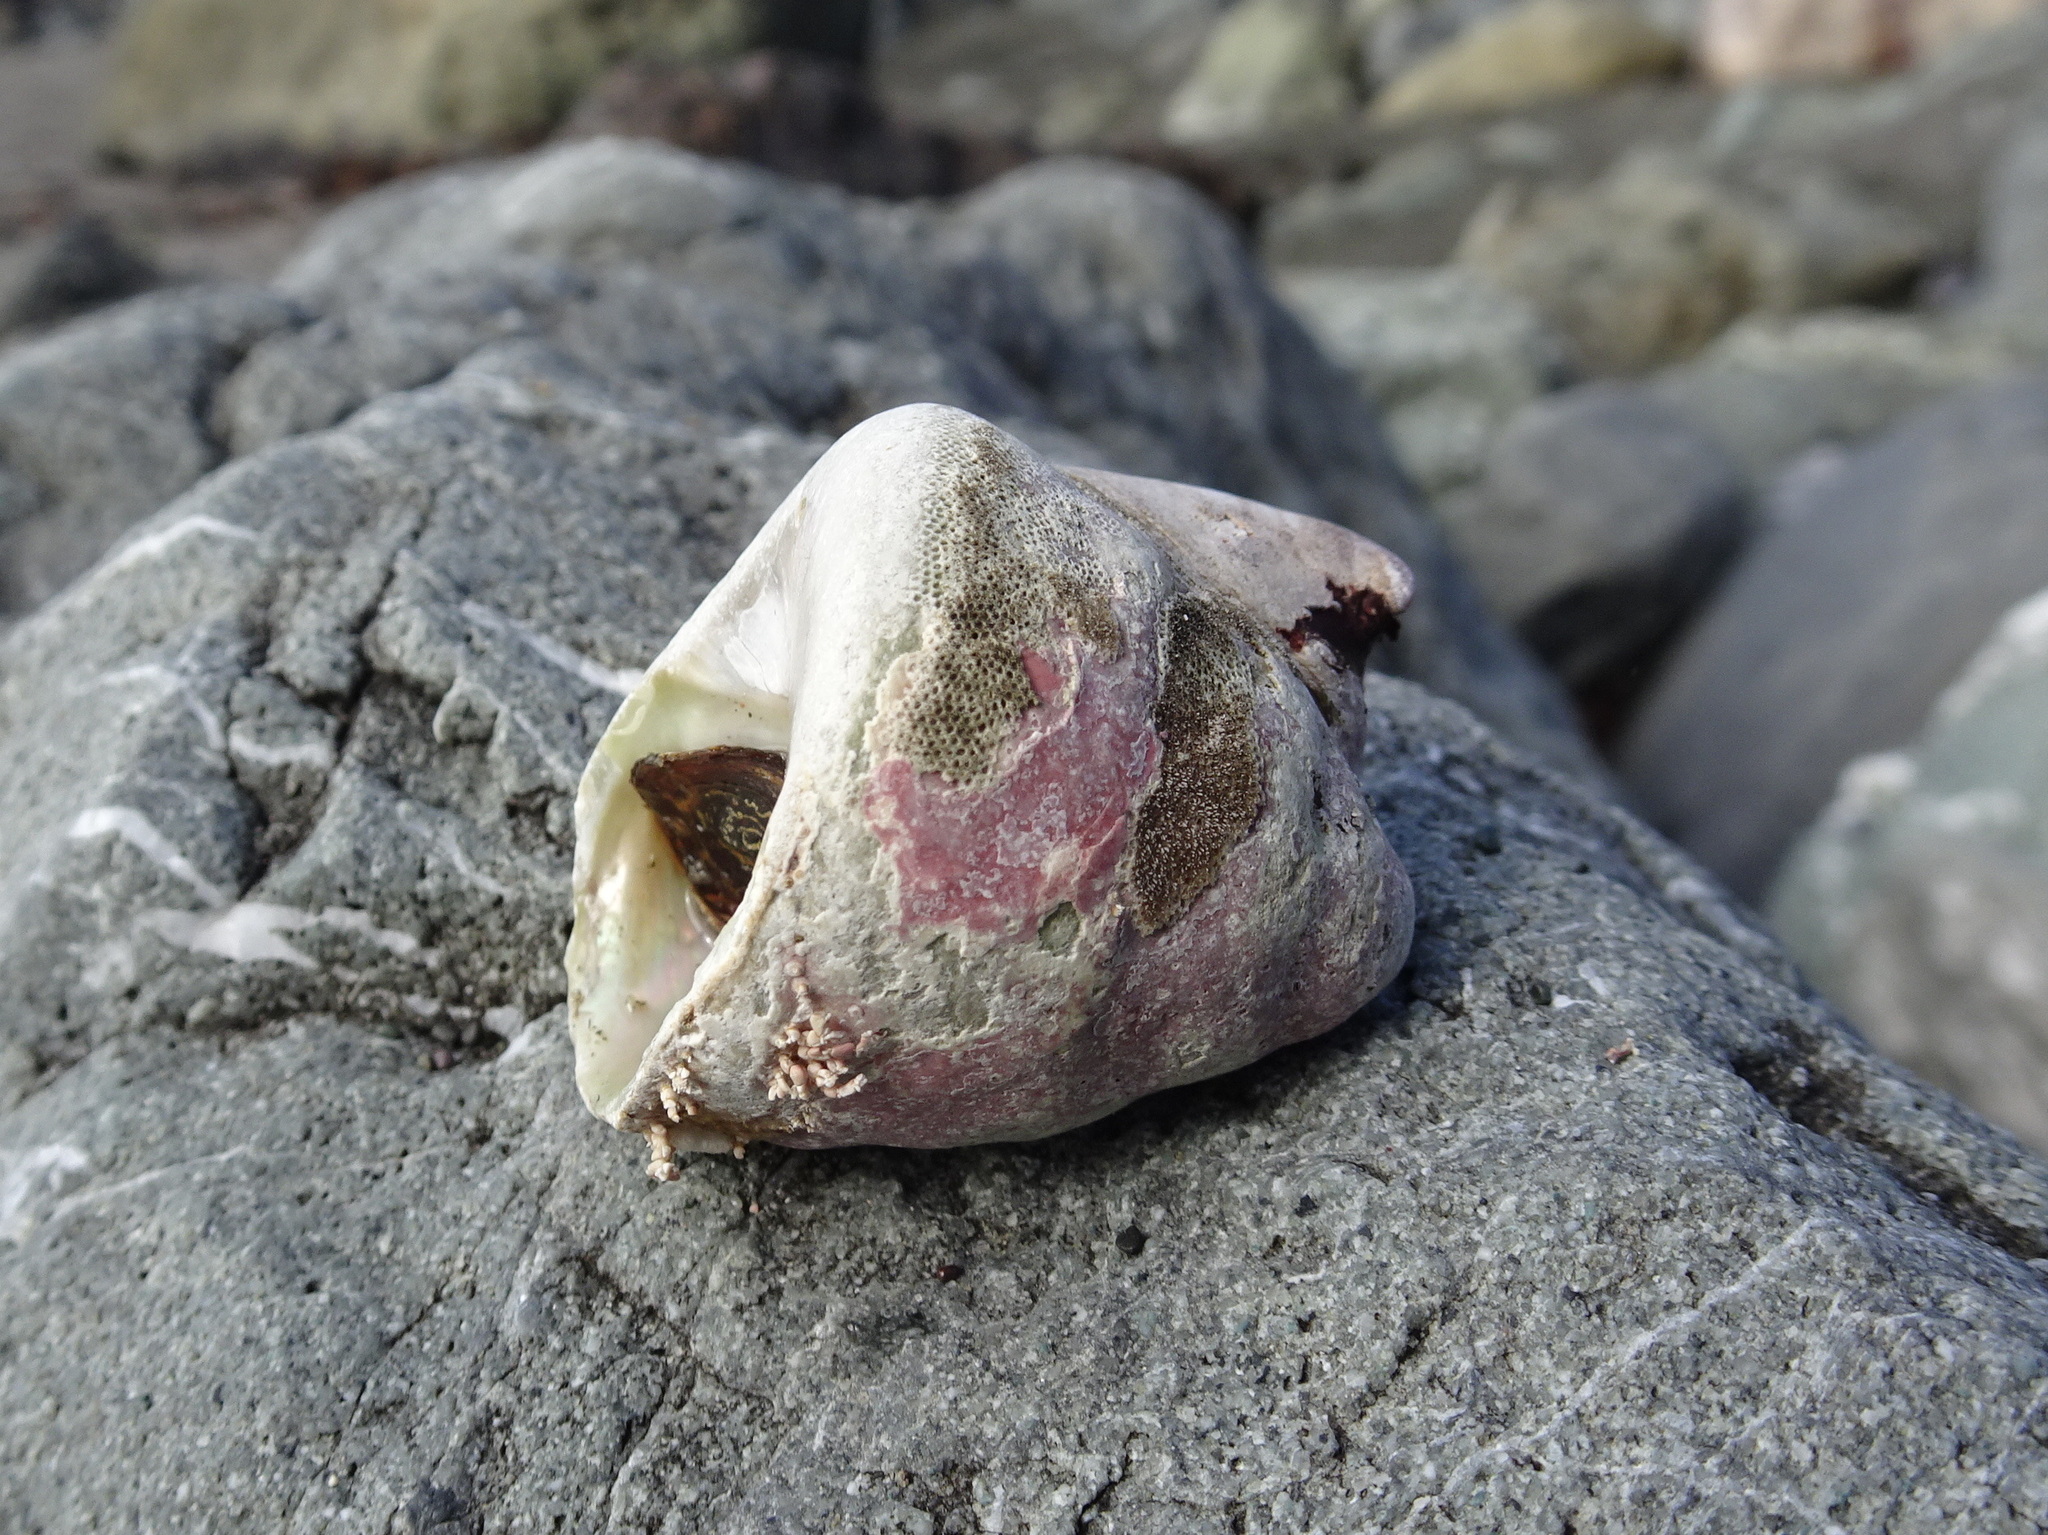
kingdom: Animalia
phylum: Mollusca
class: Gastropoda
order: Trochida
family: Tegulidae
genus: Tegula
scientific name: Tegula brunnea
